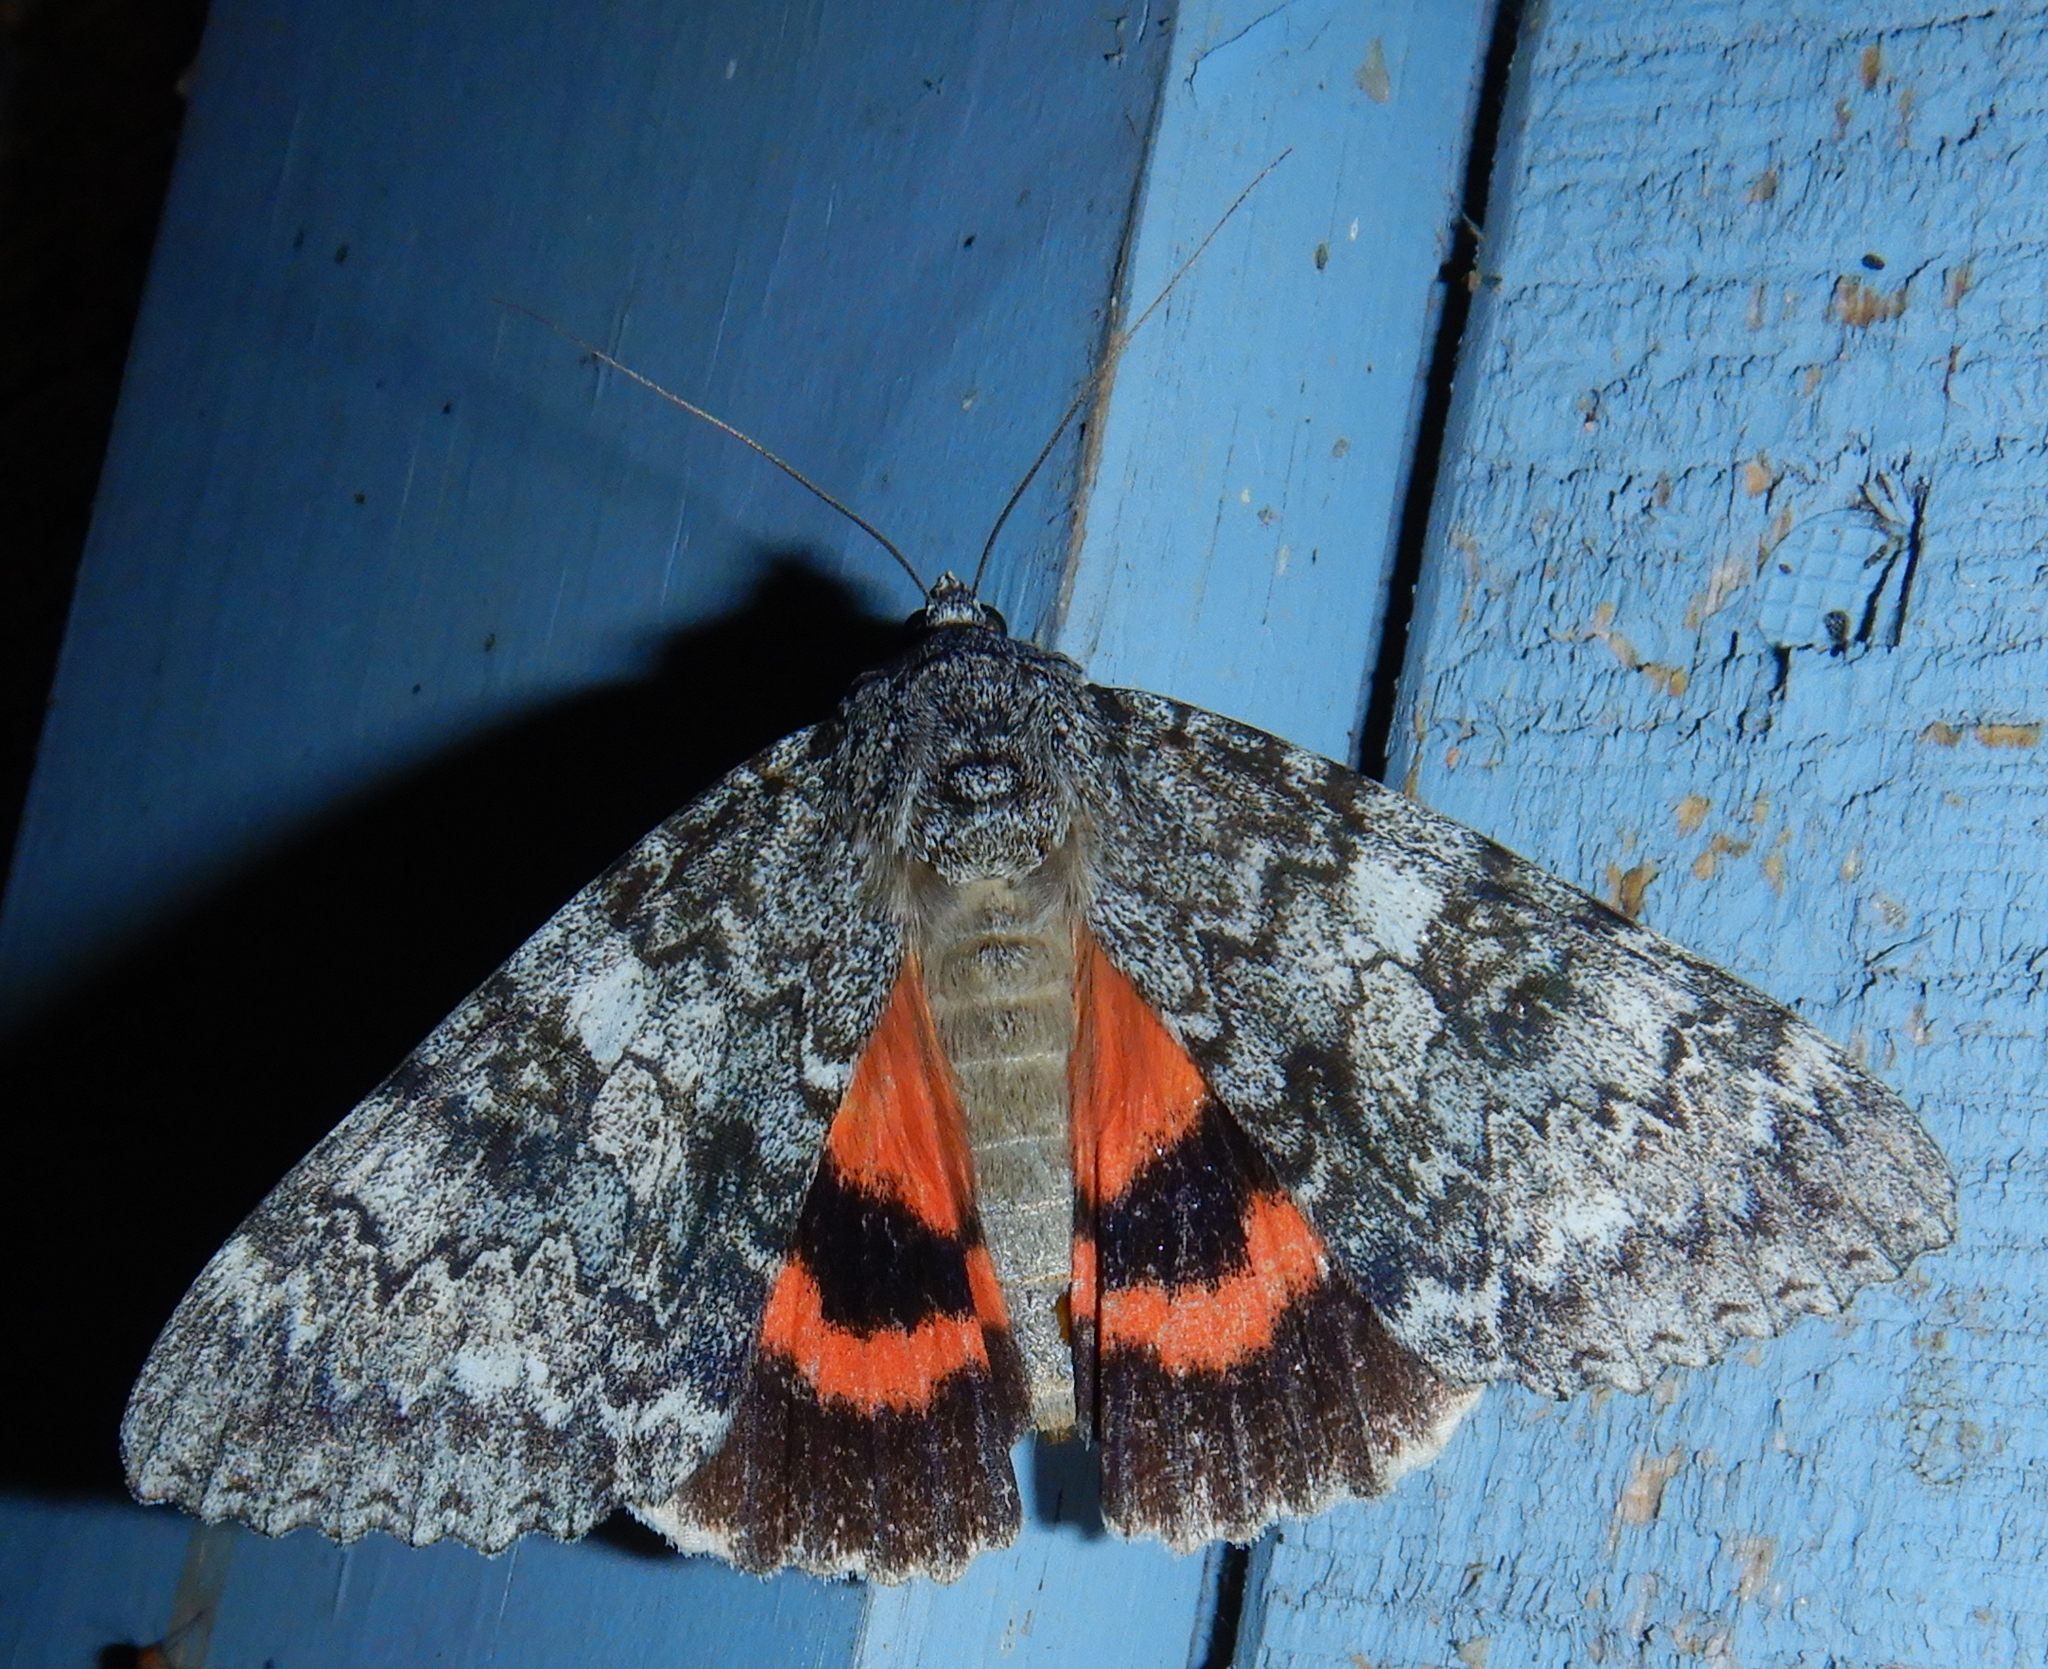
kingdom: Animalia
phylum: Arthropoda
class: Insecta
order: Lepidoptera
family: Erebidae
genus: Catocala
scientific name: Catocala unijuga
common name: Once-married underwing
